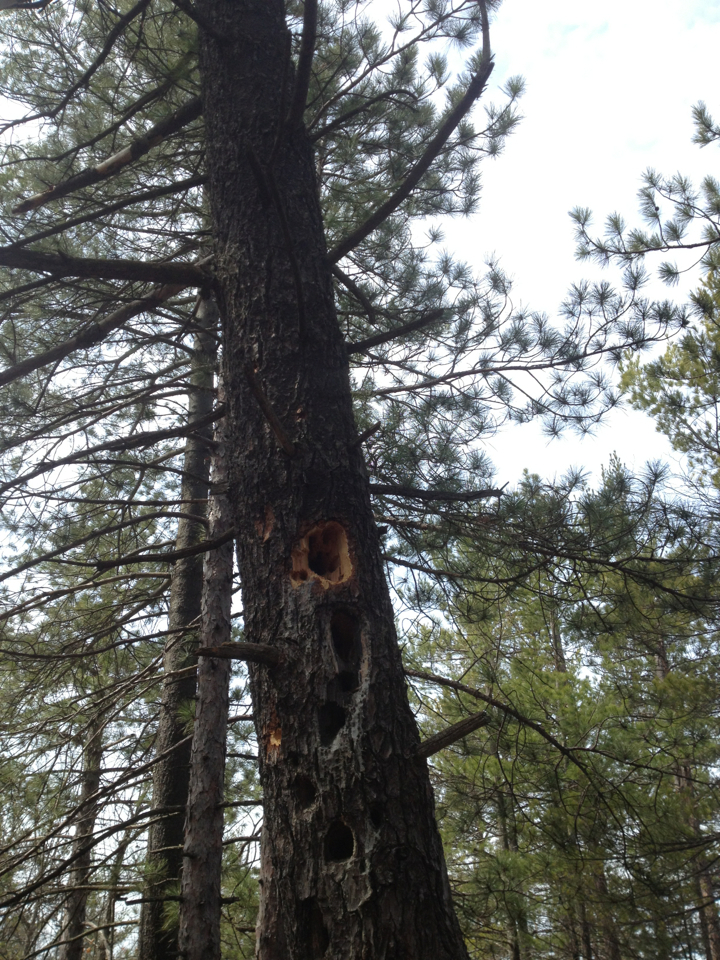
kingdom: Animalia
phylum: Chordata
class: Aves
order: Piciformes
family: Picidae
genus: Dryocopus
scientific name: Dryocopus pileatus
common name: Pileated woodpecker
